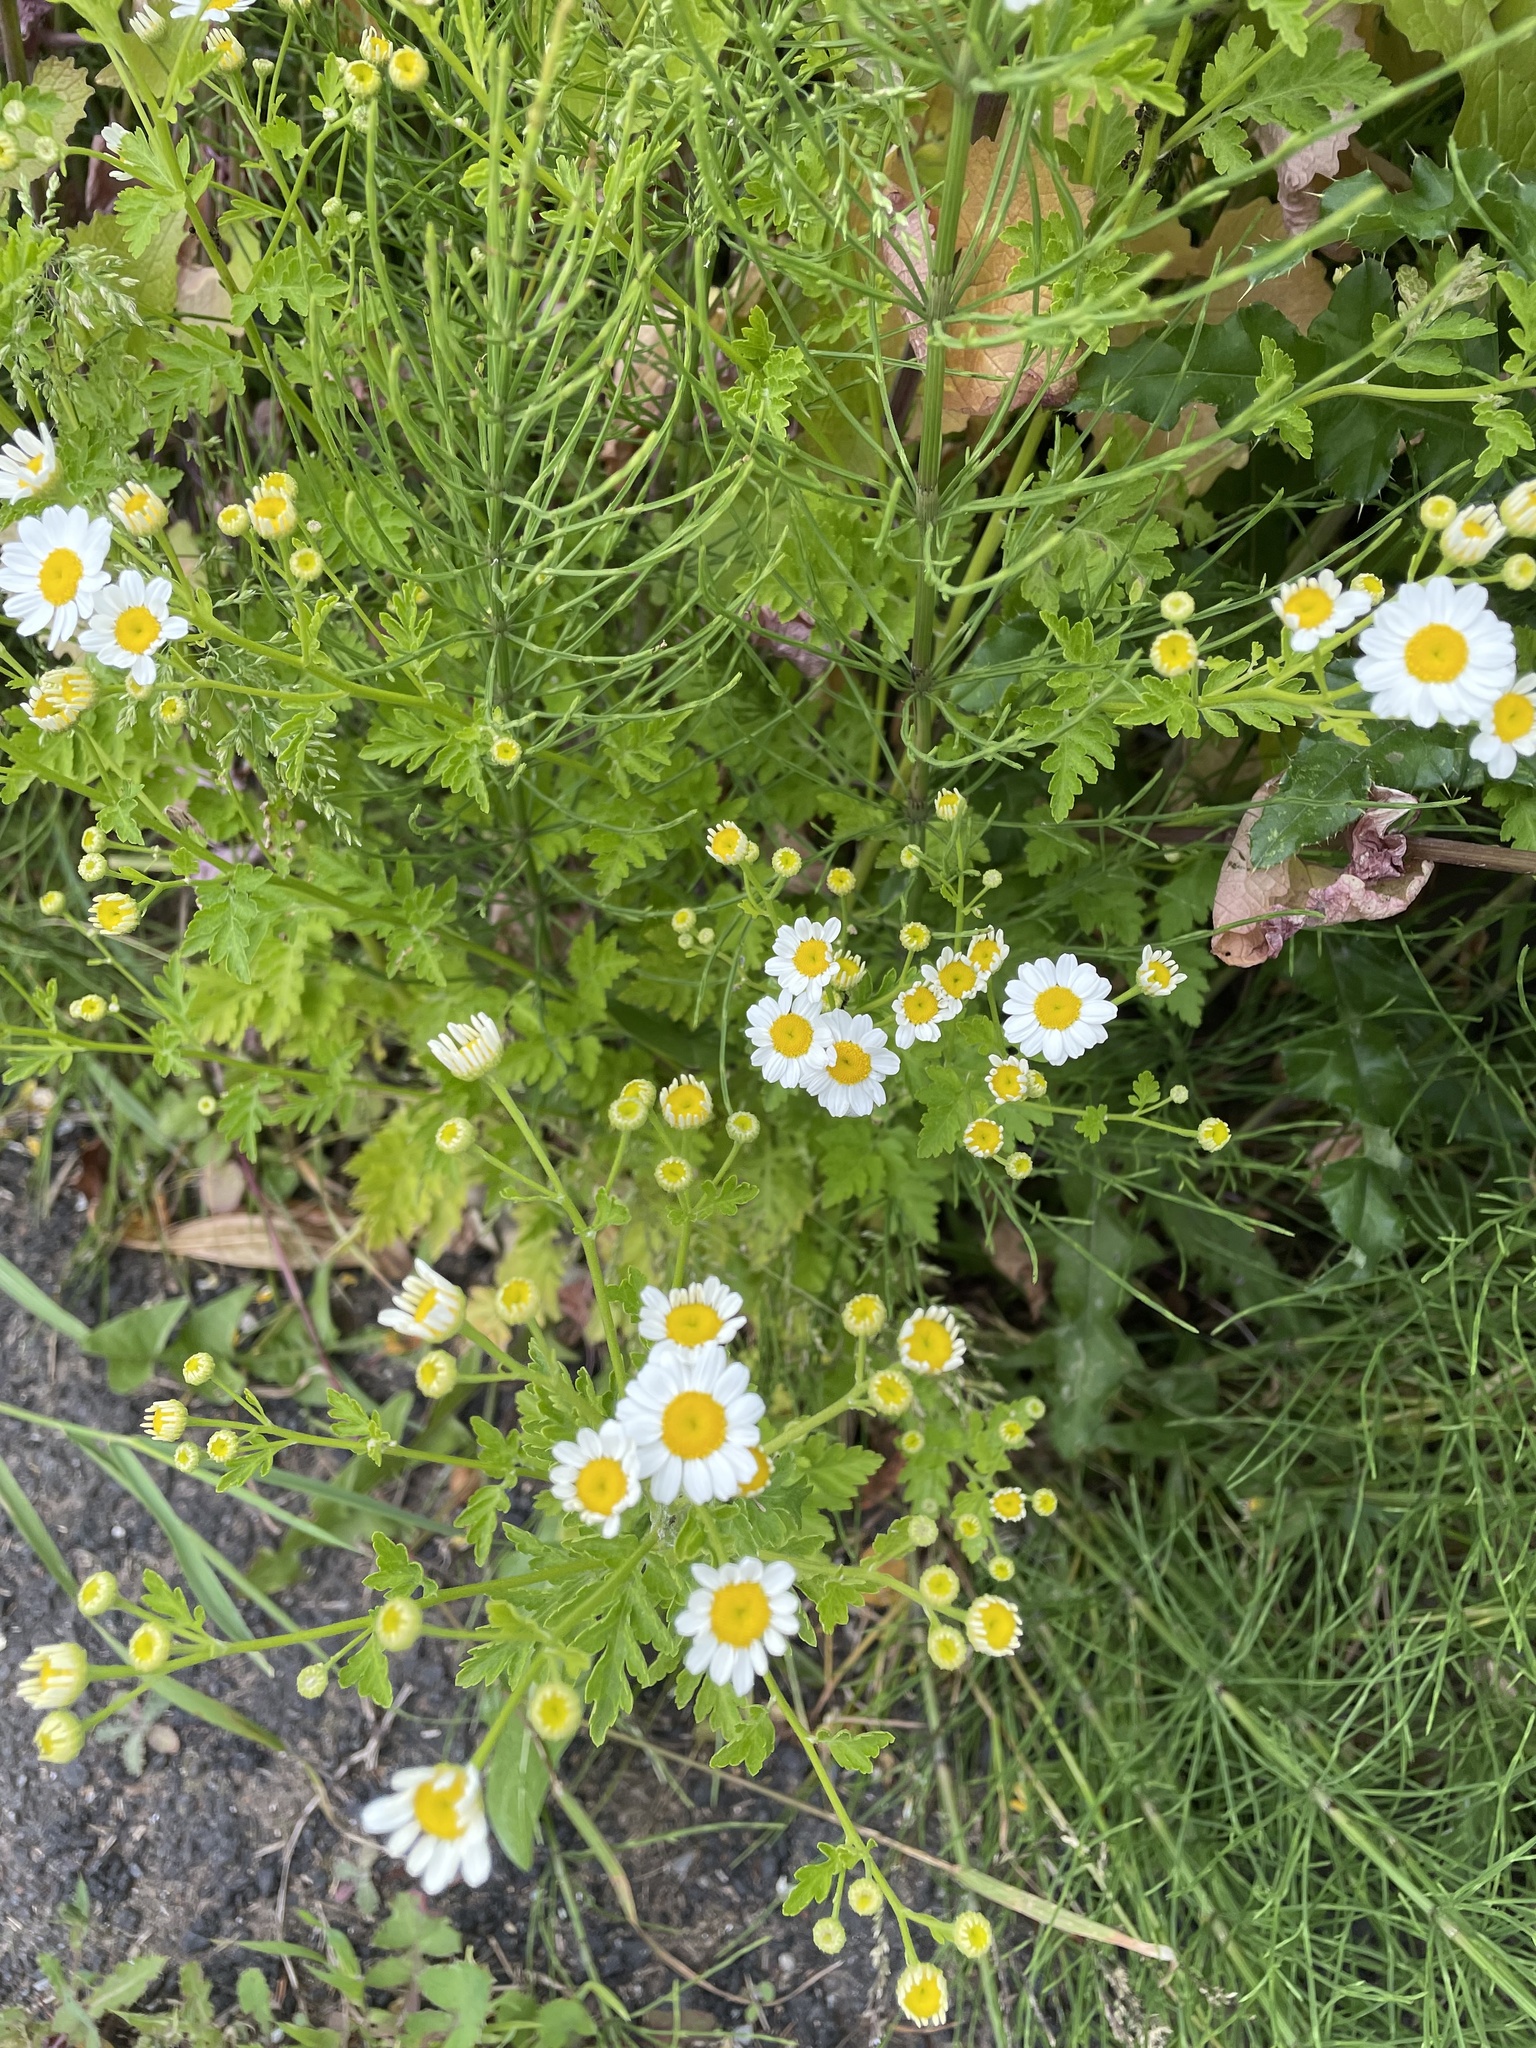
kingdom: Plantae
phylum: Tracheophyta
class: Magnoliopsida
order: Asterales
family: Asteraceae
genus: Tanacetum
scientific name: Tanacetum parthenium
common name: Feverfew
